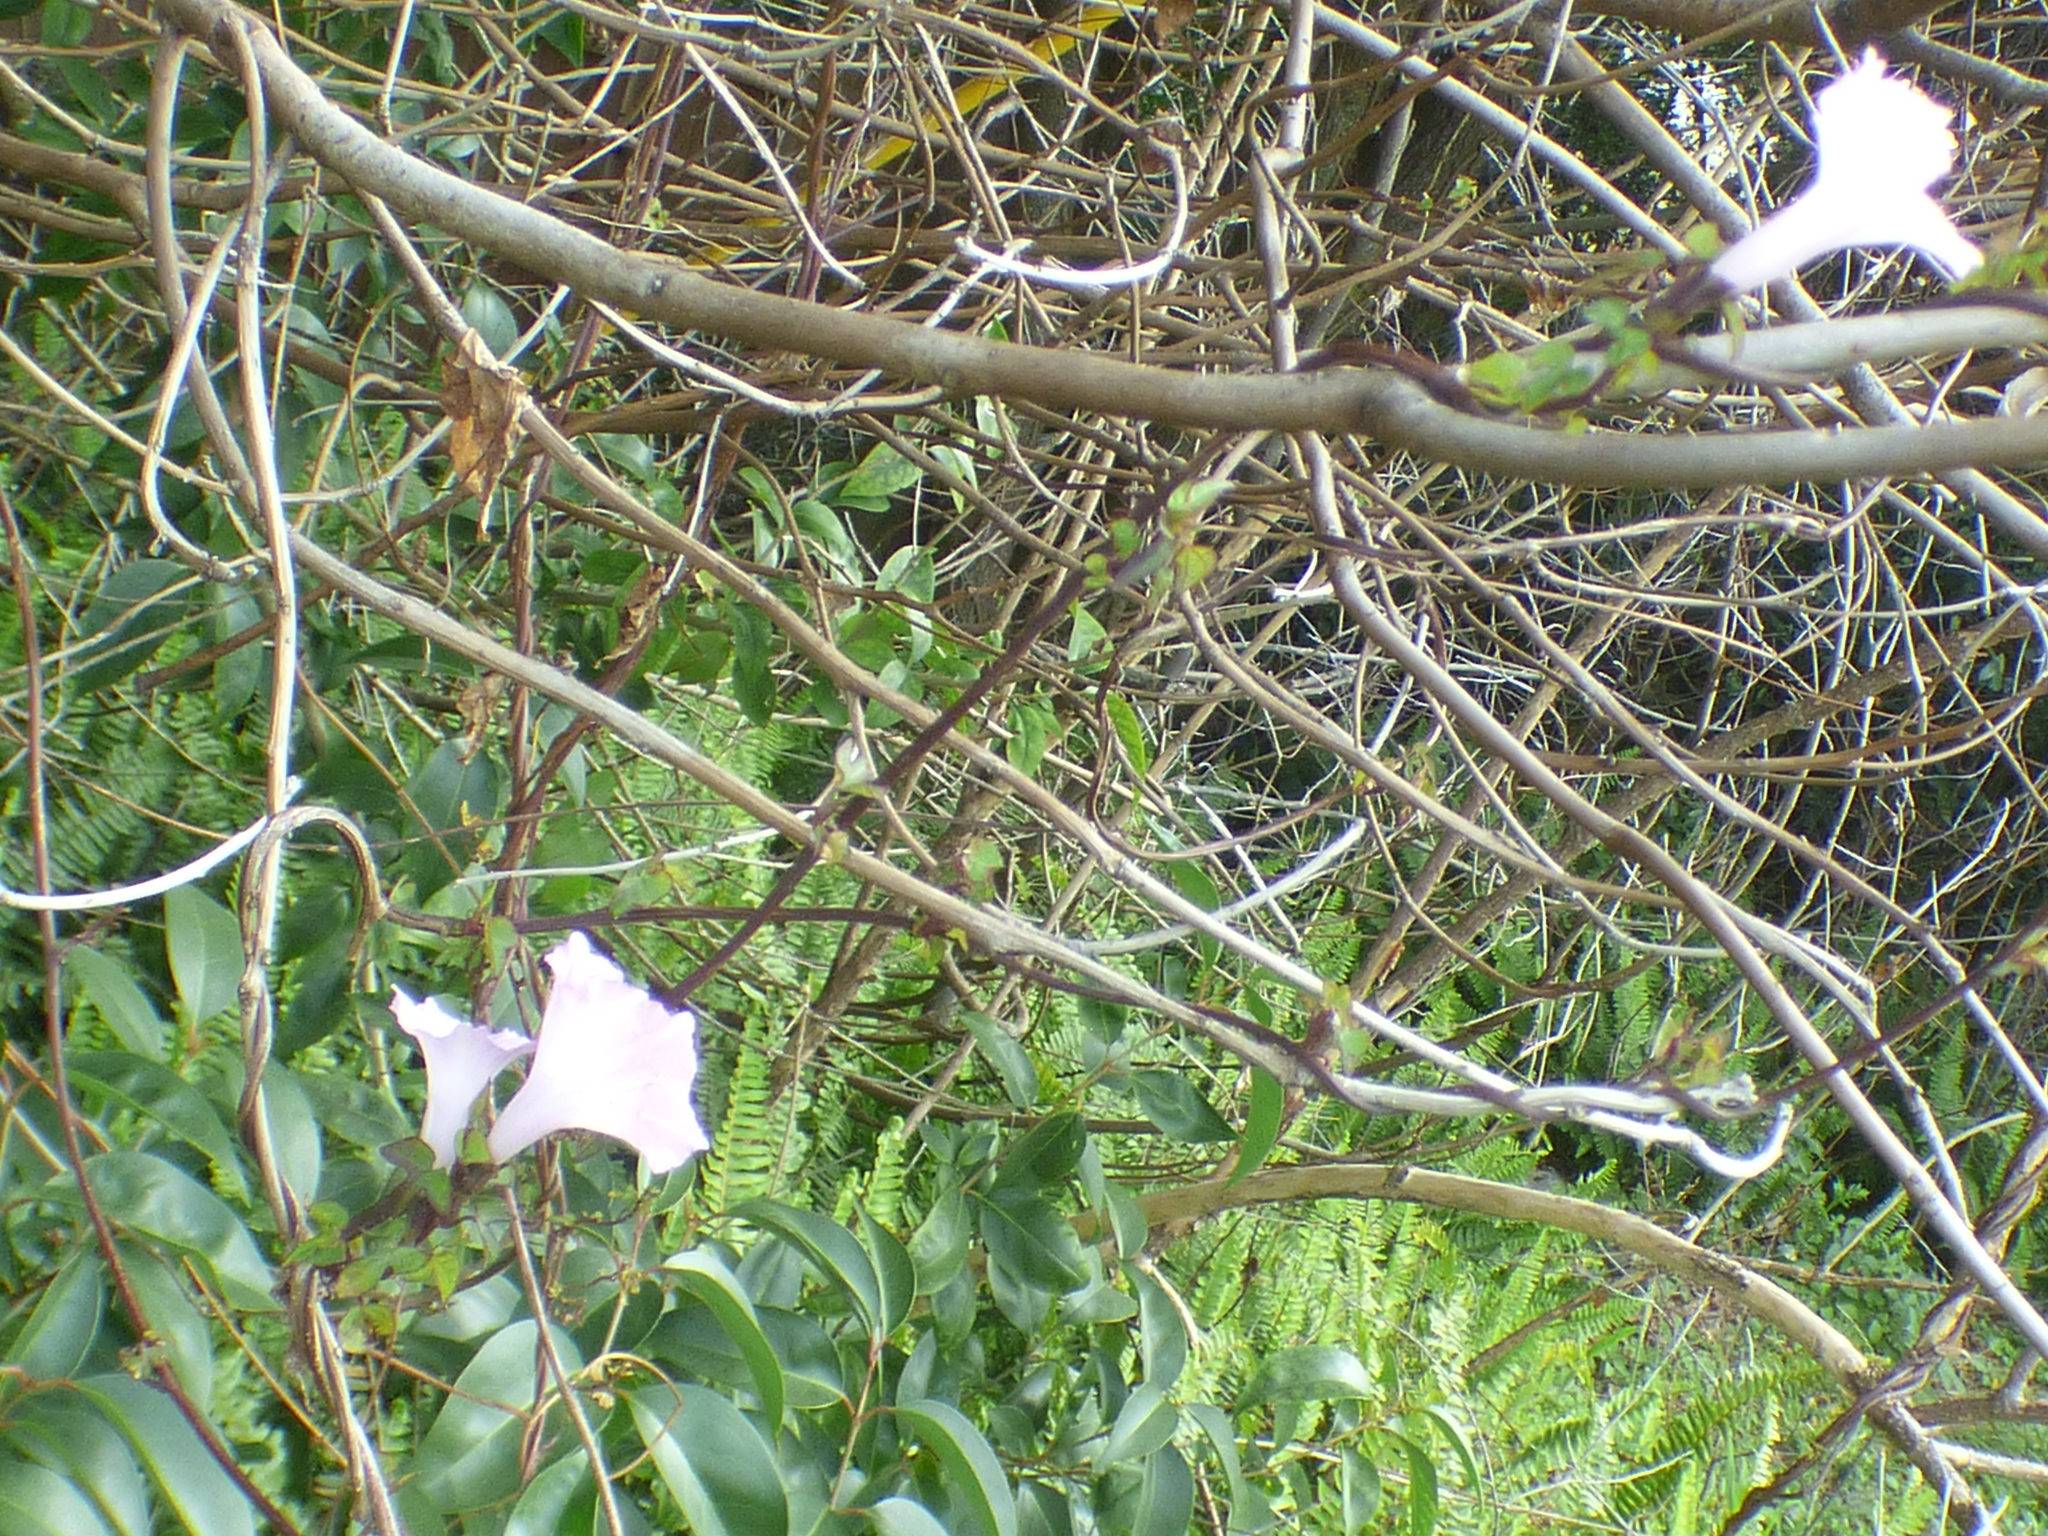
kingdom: Plantae
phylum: Tracheophyta
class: Magnoliopsida
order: Solanales
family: Convolvulaceae
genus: Ipomoea
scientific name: Ipomoea cordatotriloba
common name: Cotton morning glory
